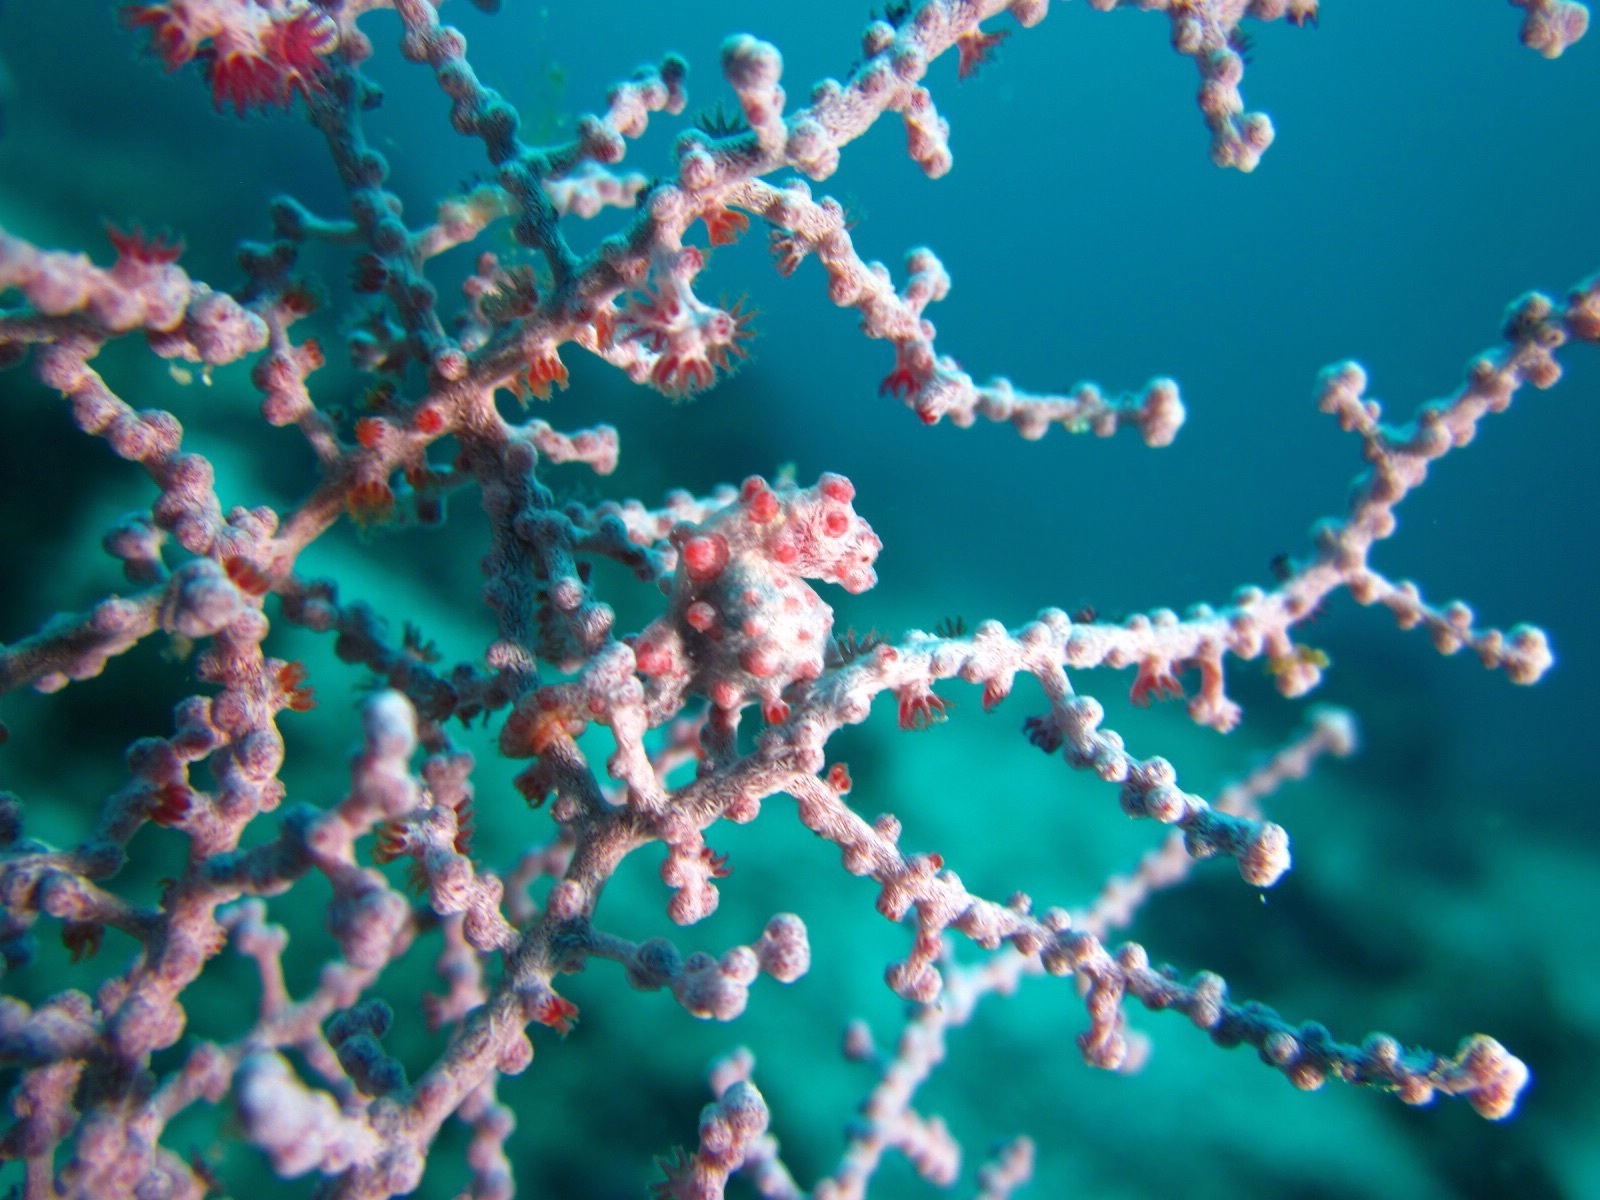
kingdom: Animalia
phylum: Chordata
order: Syngnathiformes
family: Syngnathidae
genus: Hippocampus
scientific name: Hippocampus bargibanti
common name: Bargibant's seahorse
